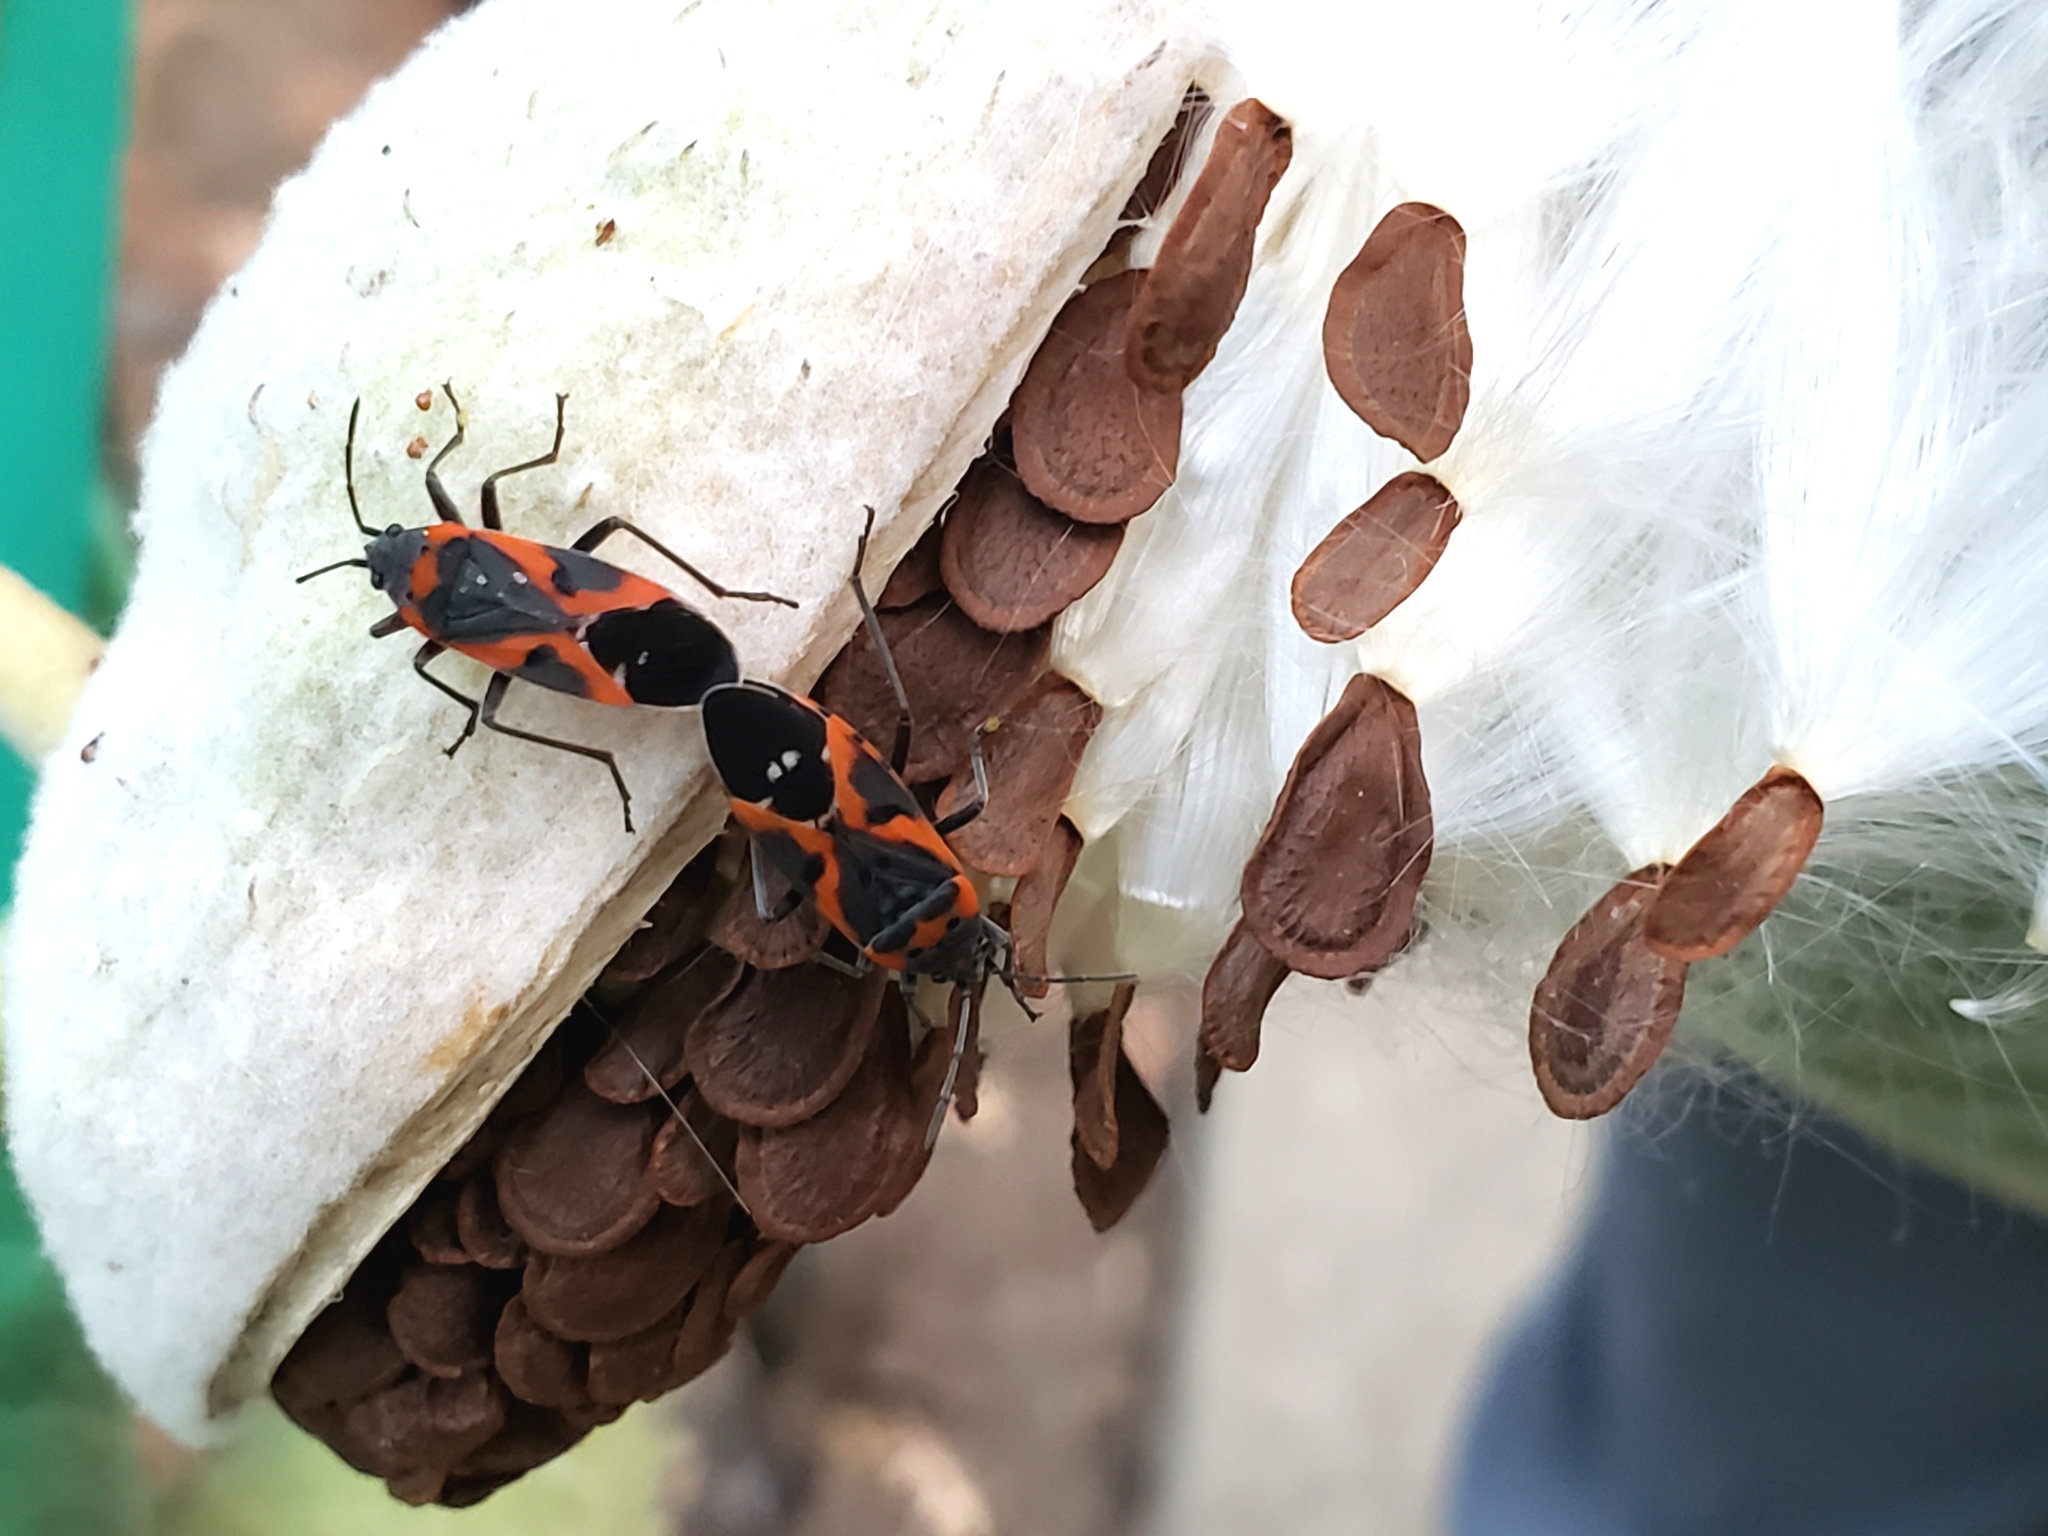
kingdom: Animalia
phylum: Arthropoda
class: Insecta
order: Hemiptera
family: Lygaeidae
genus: Lygaeus
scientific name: Lygaeus kalmii
